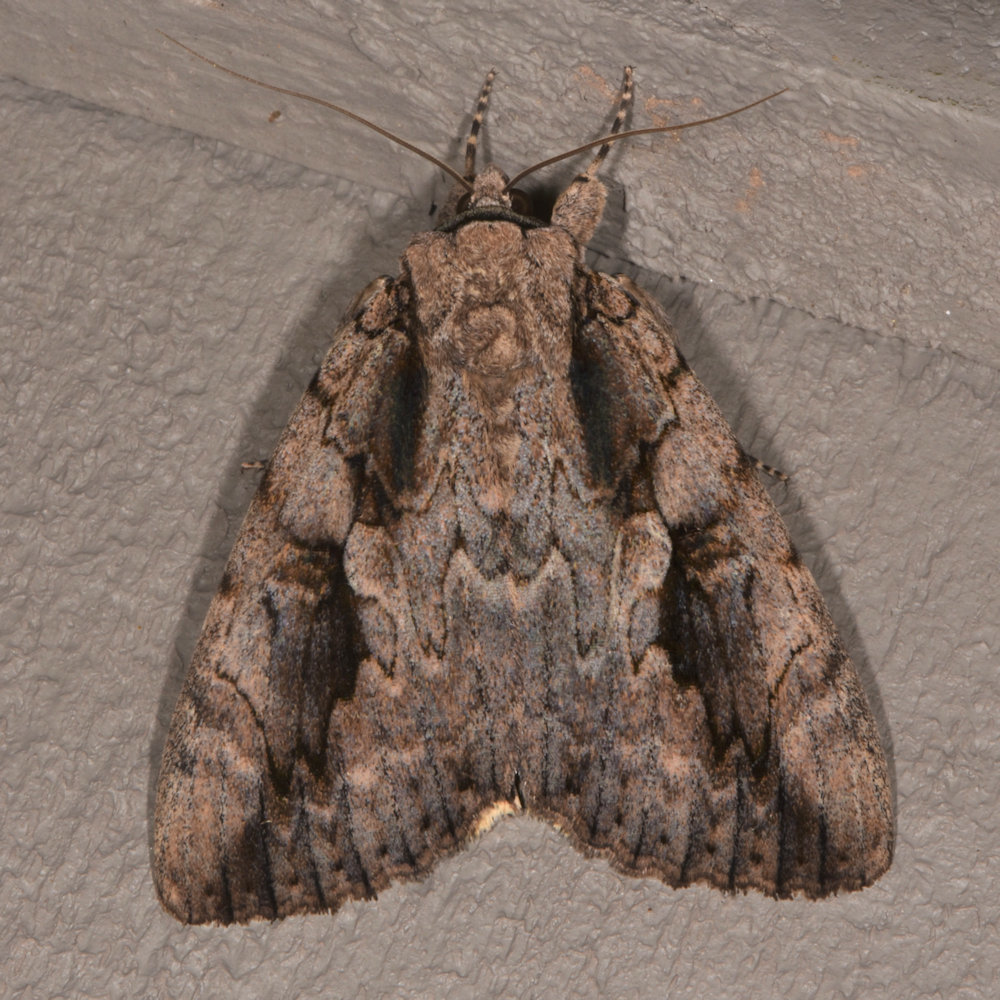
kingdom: Animalia
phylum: Arthropoda
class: Insecta
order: Lepidoptera
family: Erebidae
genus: Catocala
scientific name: Catocala amatrix
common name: Sweetheart underwing
